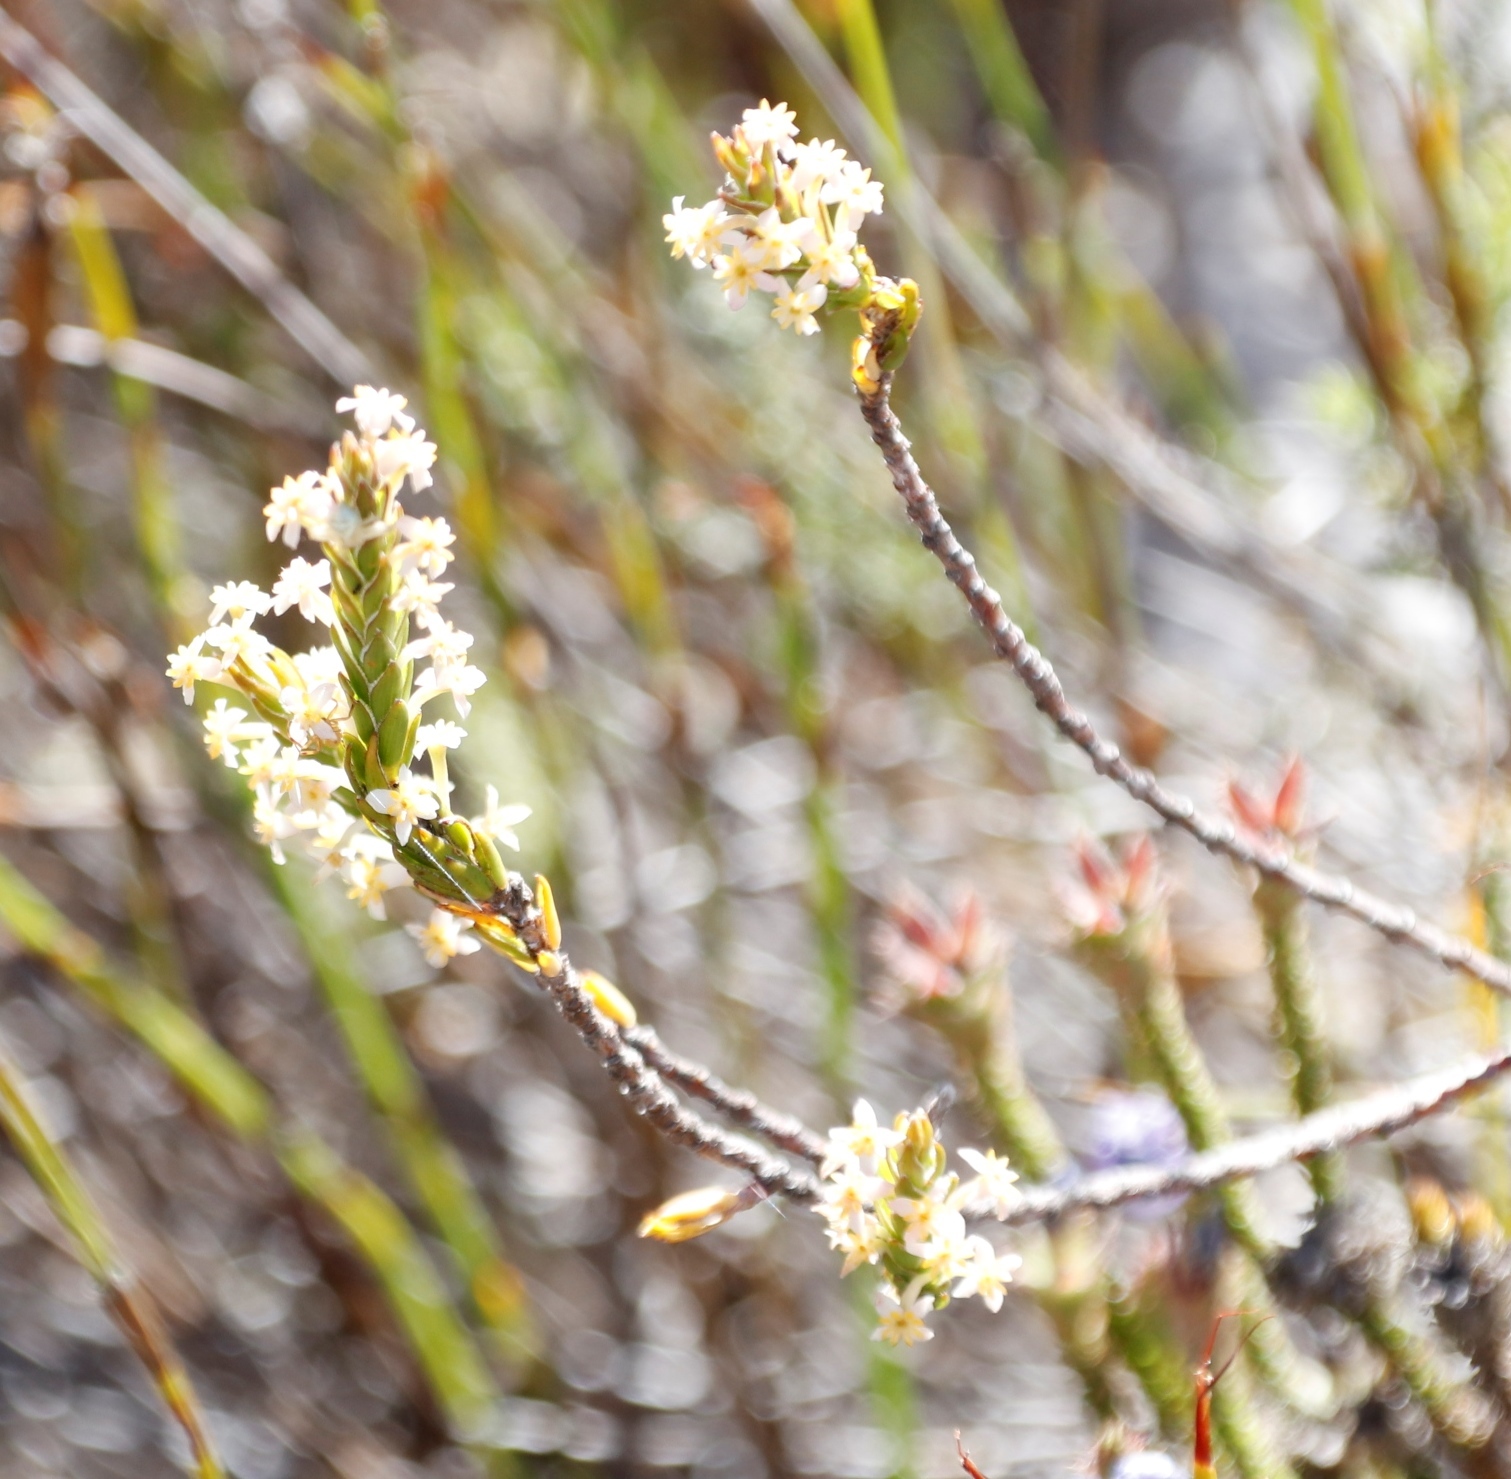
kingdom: Plantae
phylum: Tracheophyta
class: Magnoliopsida
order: Malvales
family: Thymelaeaceae
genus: Struthiola
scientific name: Struthiola ciliata
